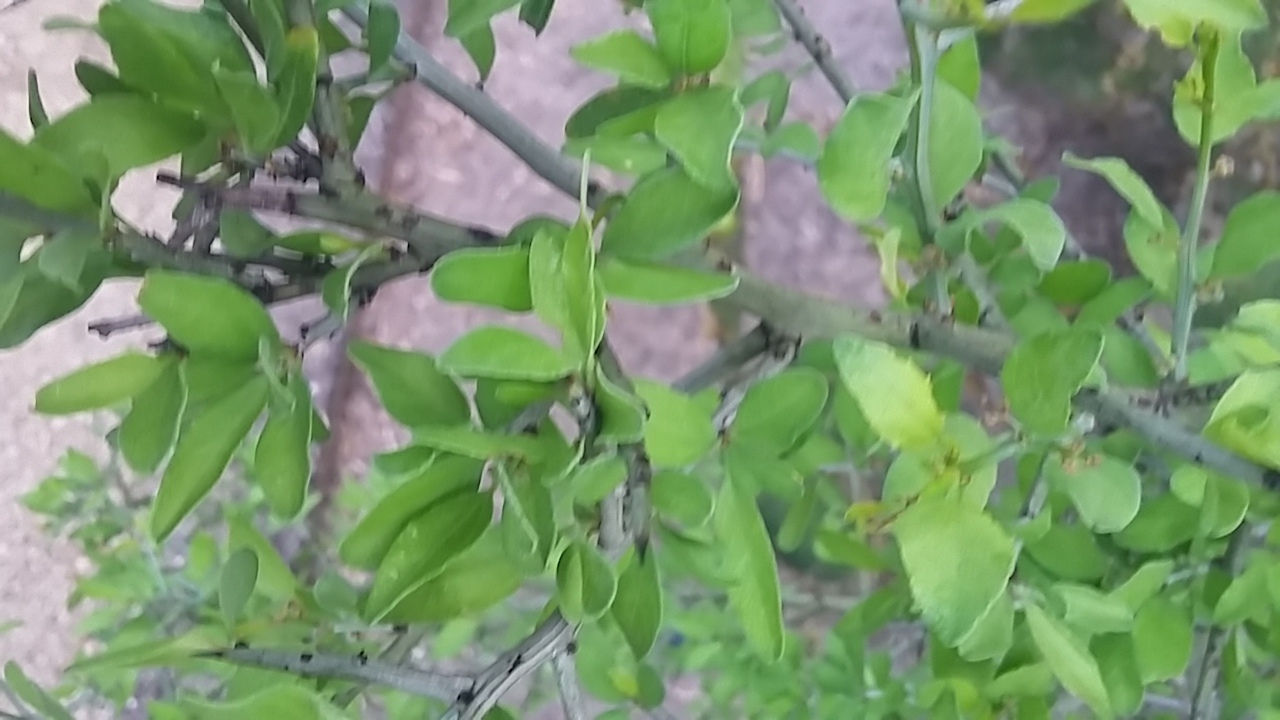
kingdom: Plantae
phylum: Tracheophyta
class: Magnoliopsida
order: Rosales
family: Rhamnaceae
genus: Sarcomphalus
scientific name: Sarcomphalus obtusifolius
